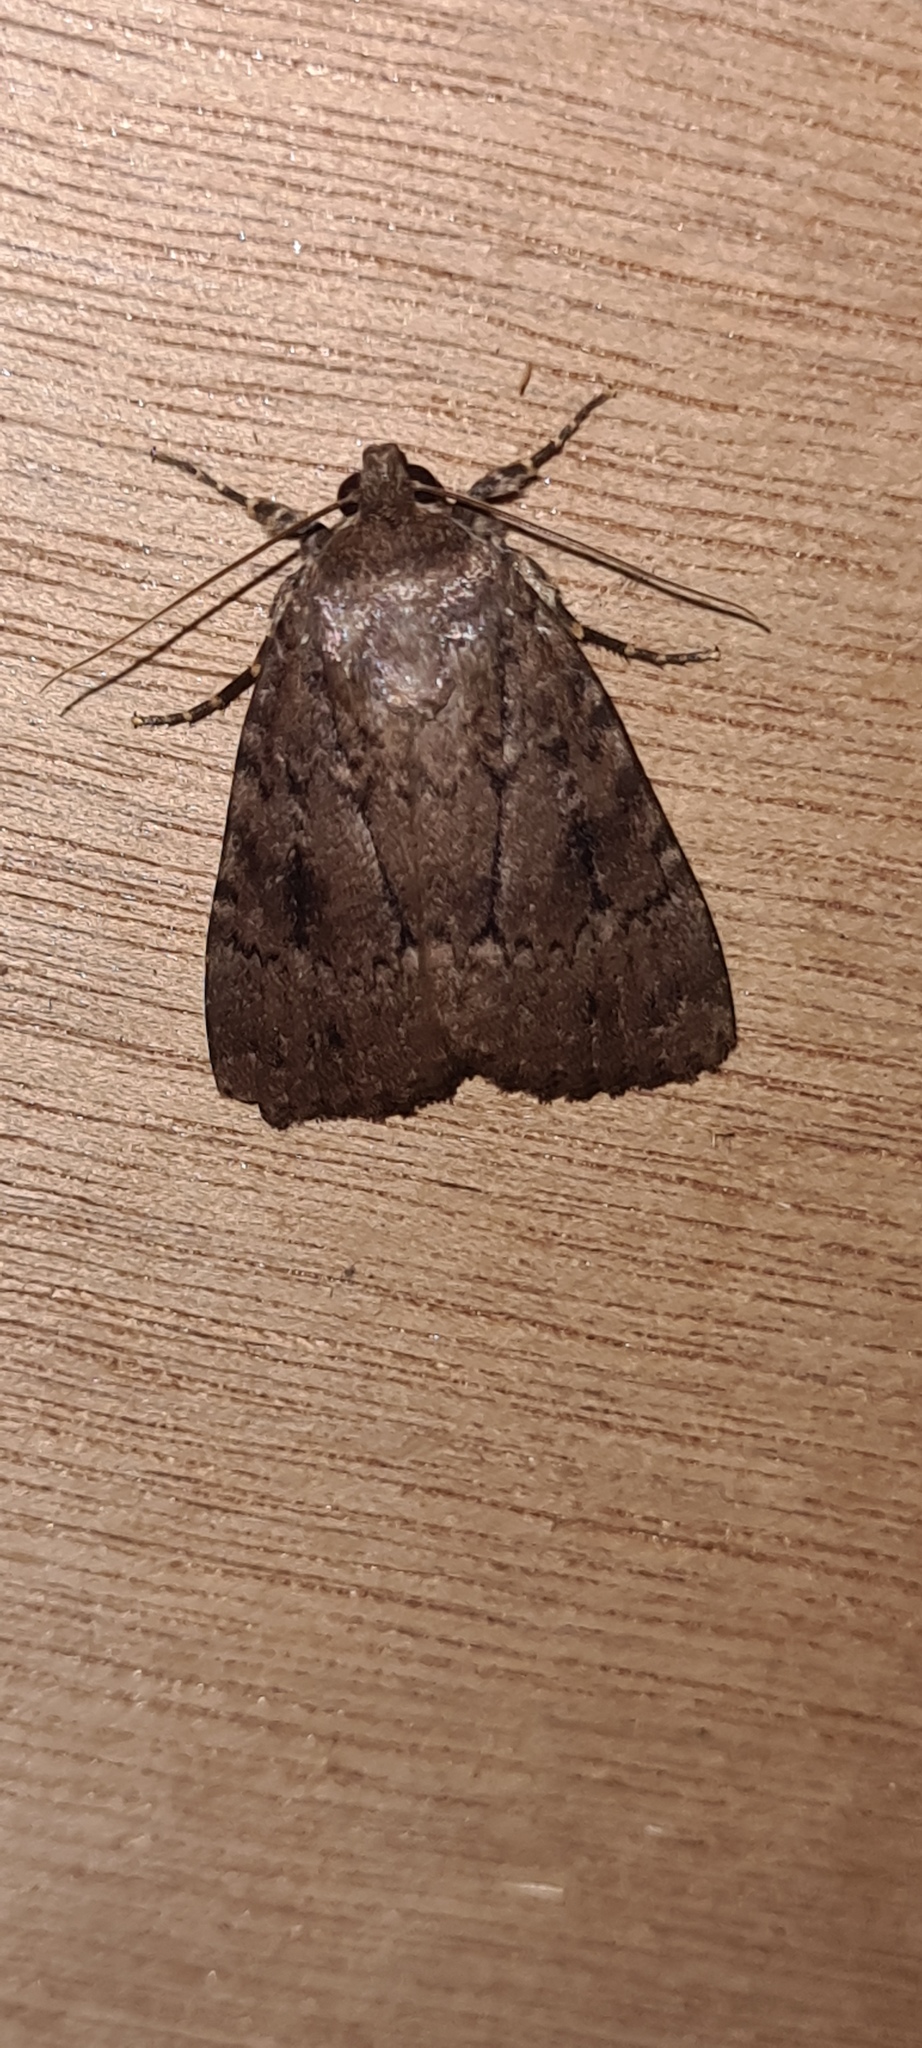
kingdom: Animalia
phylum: Arthropoda
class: Insecta
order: Lepidoptera
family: Noctuidae
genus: Amphipyra
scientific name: Amphipyra pyramidea
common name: Copper underwing
